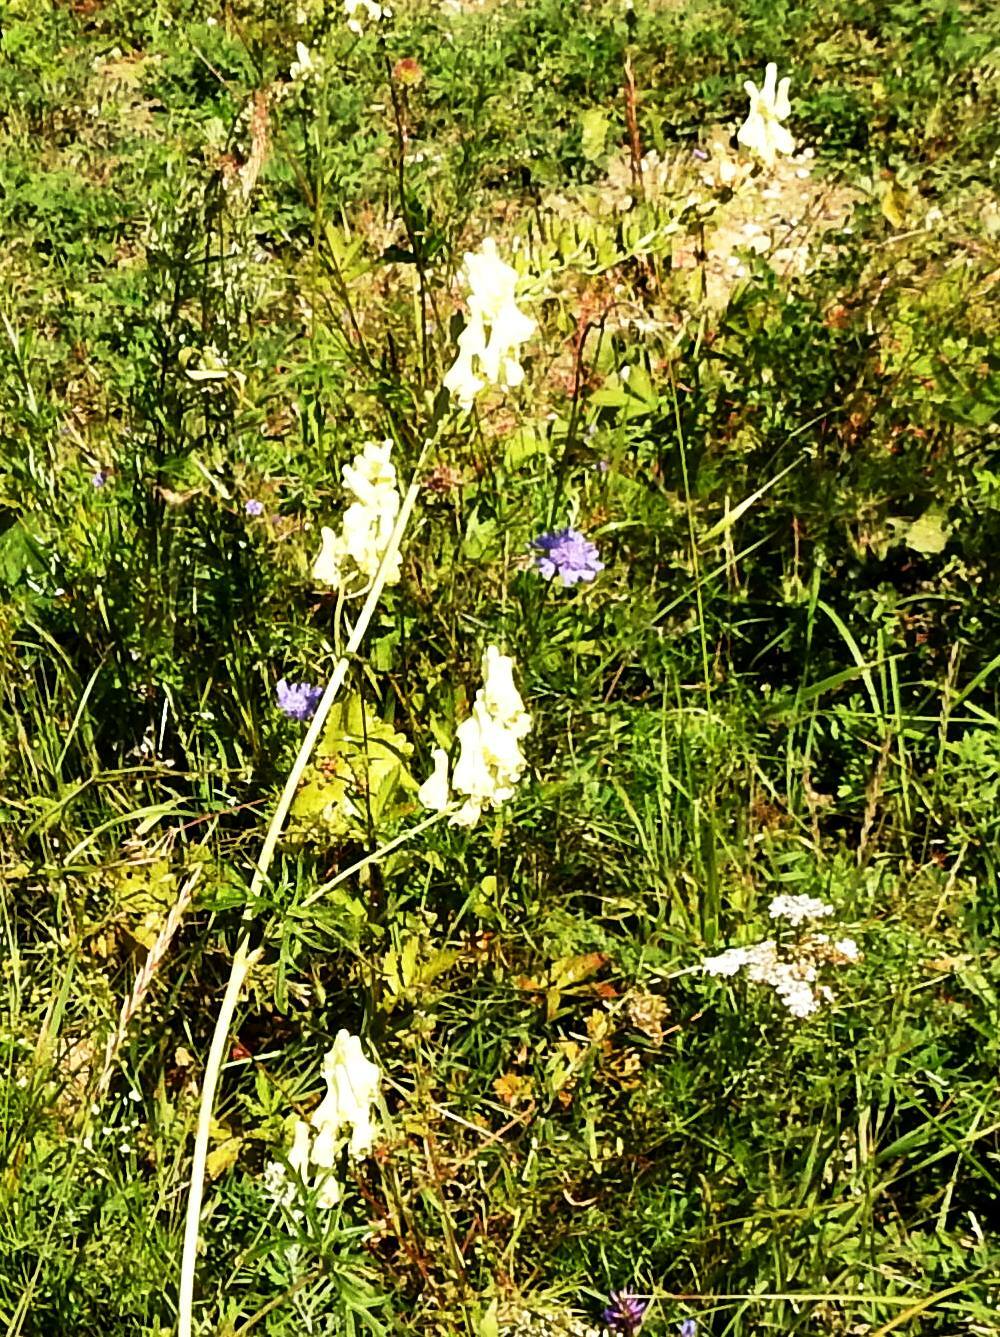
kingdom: Plantae
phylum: Tracheophyta
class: Magnoliopsida
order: Ranunculales
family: Ranunculaceae
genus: Aconitum
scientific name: Aconitum barbatum
